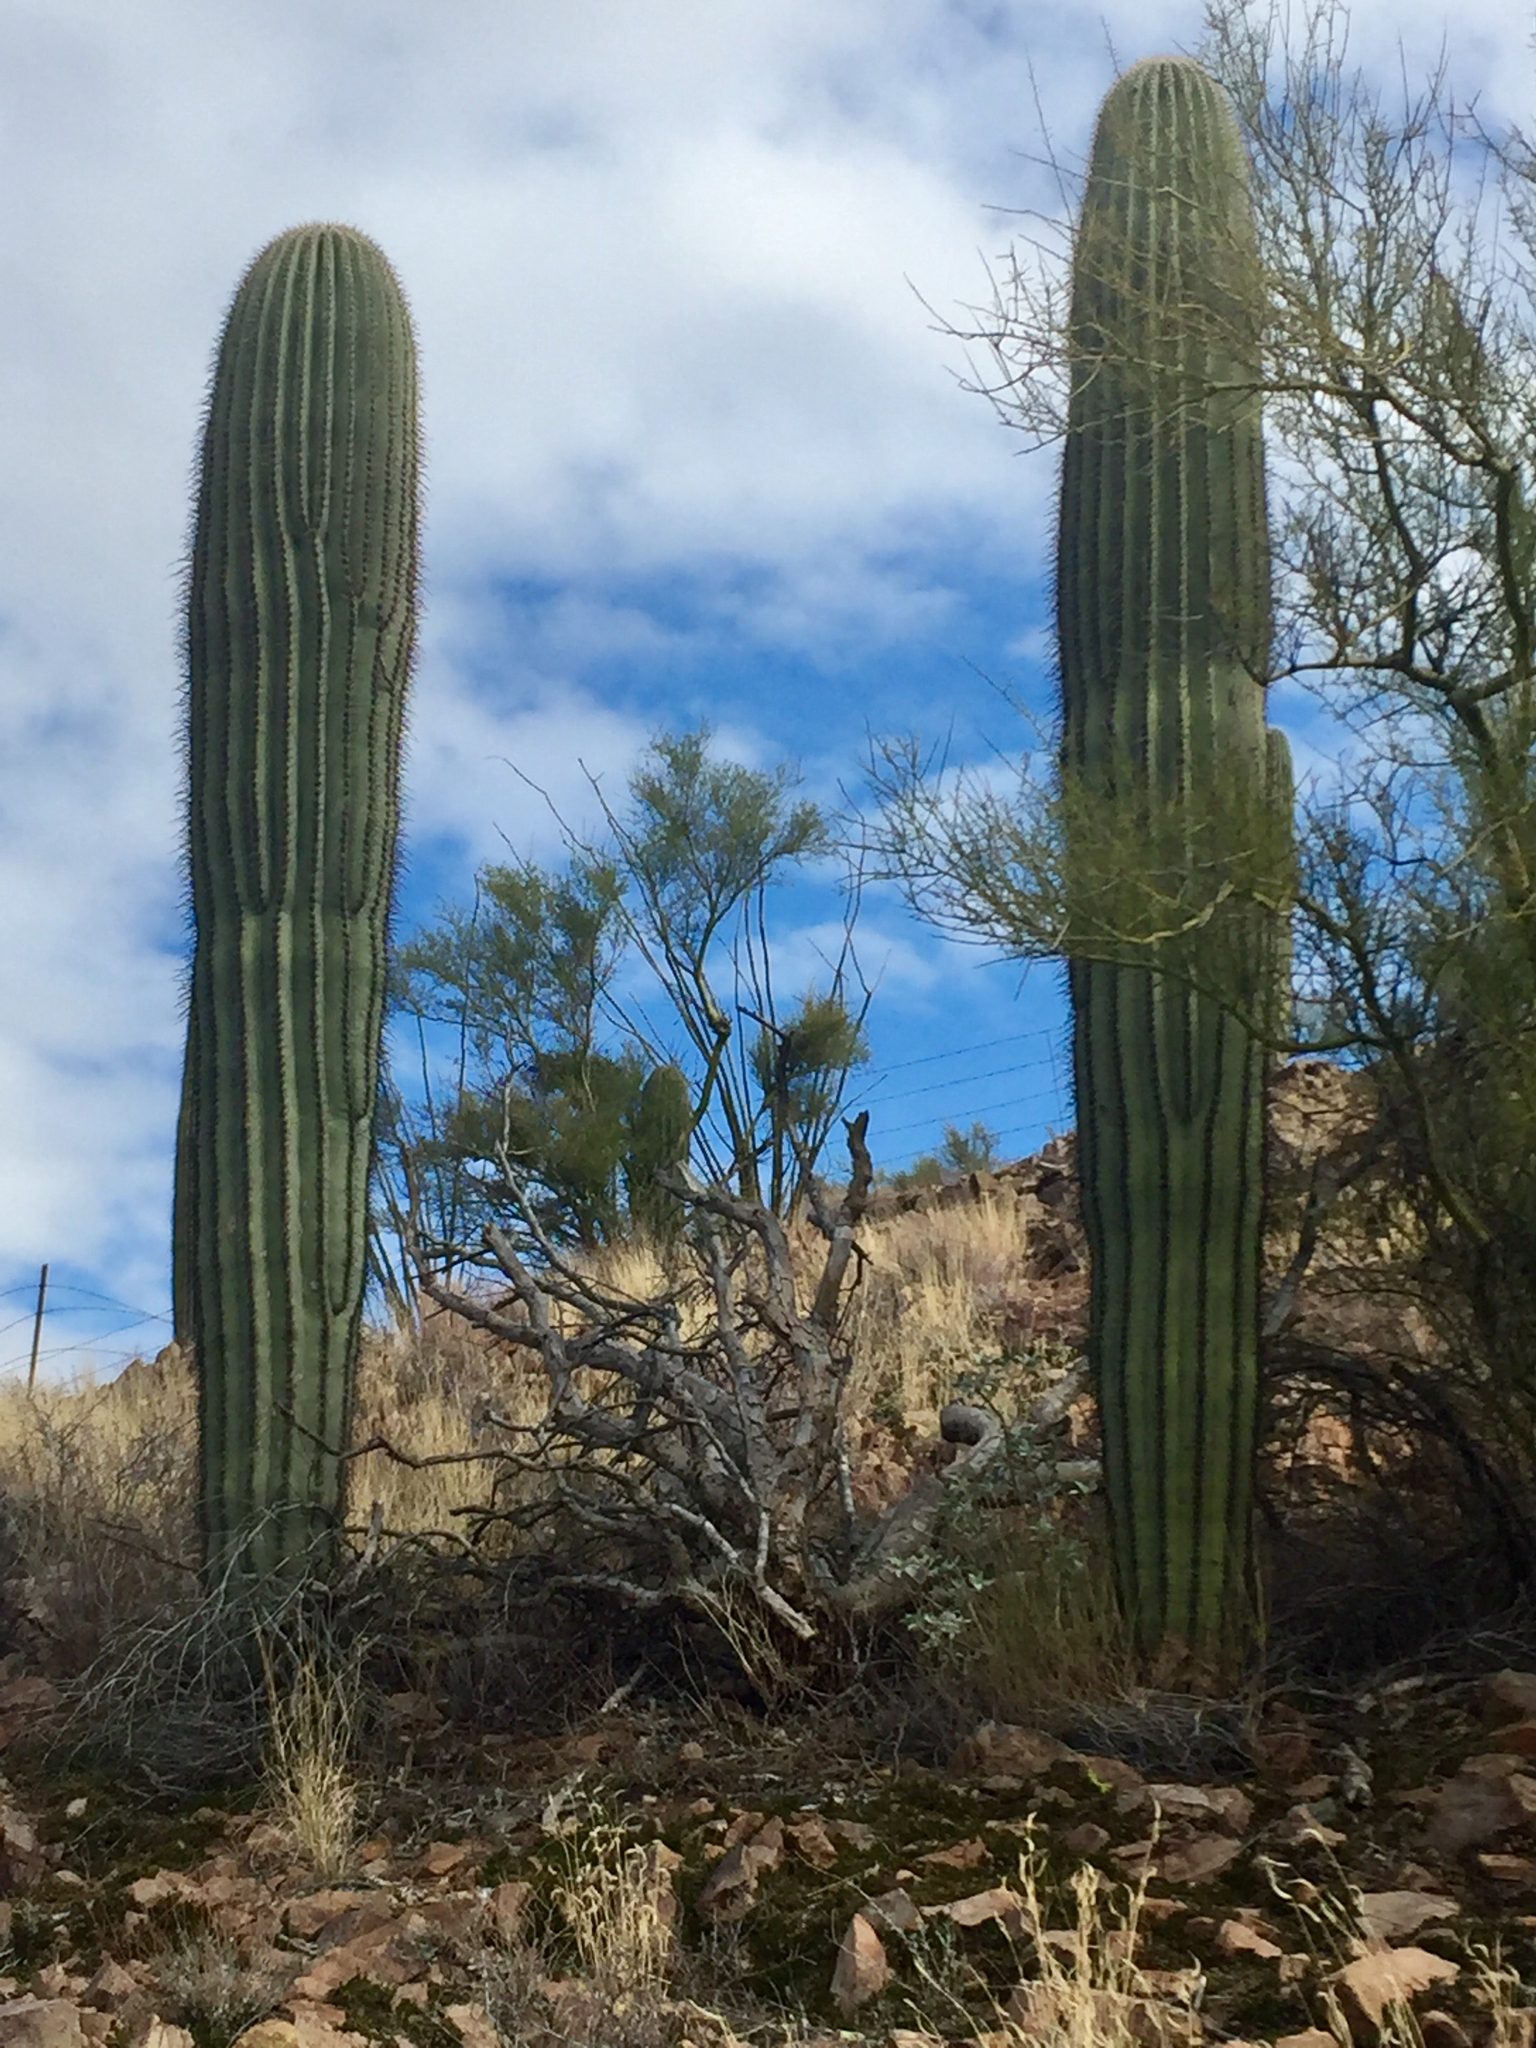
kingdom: Plantae
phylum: Tracheophyta
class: Magnoliopsida
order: Caryophyllales
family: Cactaceae
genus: Carnegiea
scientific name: Carnegiea gigantea
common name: Saguaro
